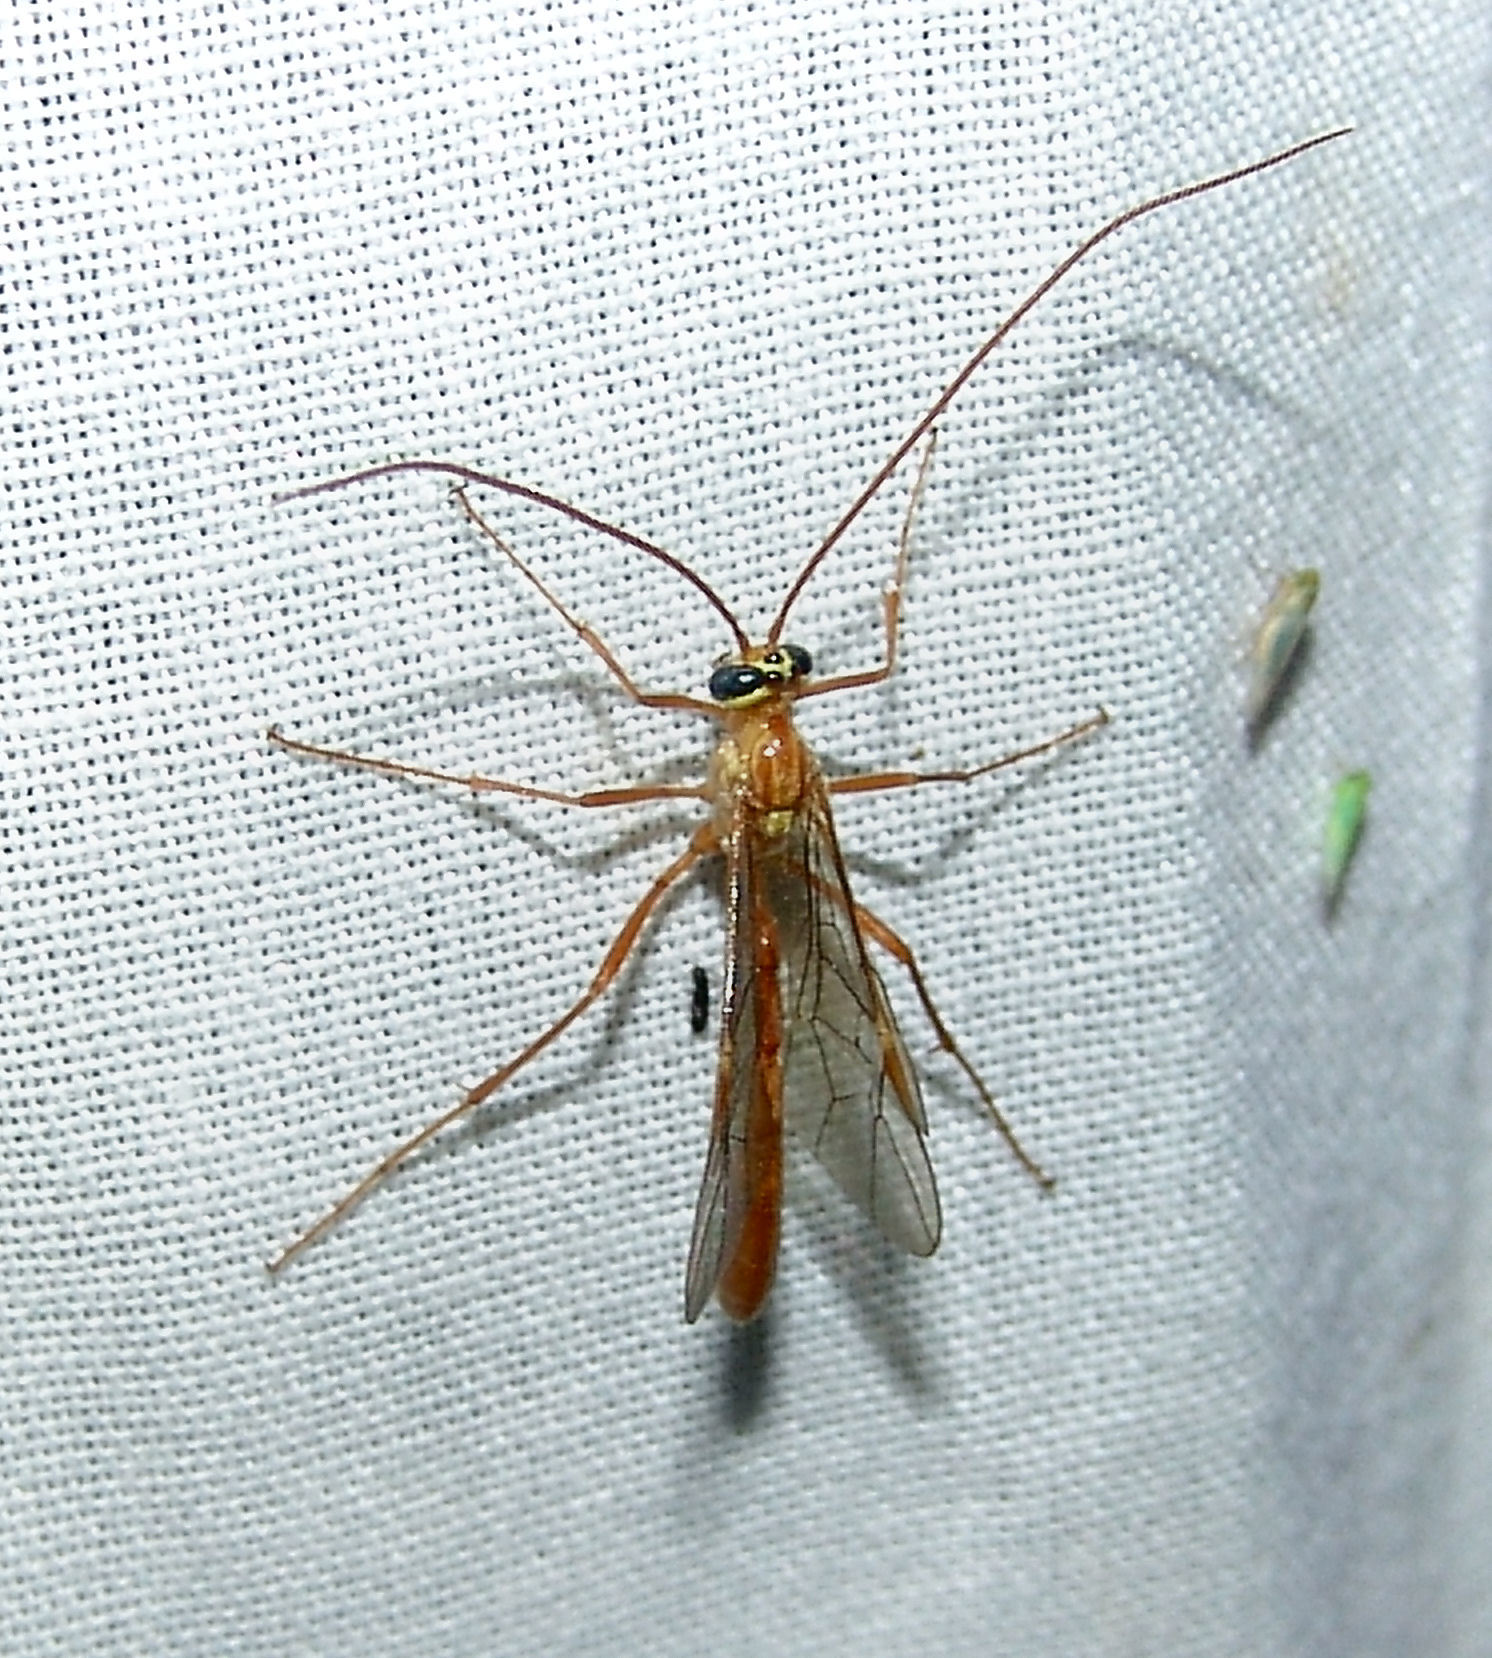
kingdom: Animalia
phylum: Arthropoda
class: Insecta
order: Hymenoptera
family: Ichneumonidae
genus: Ophion
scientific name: Ophion
